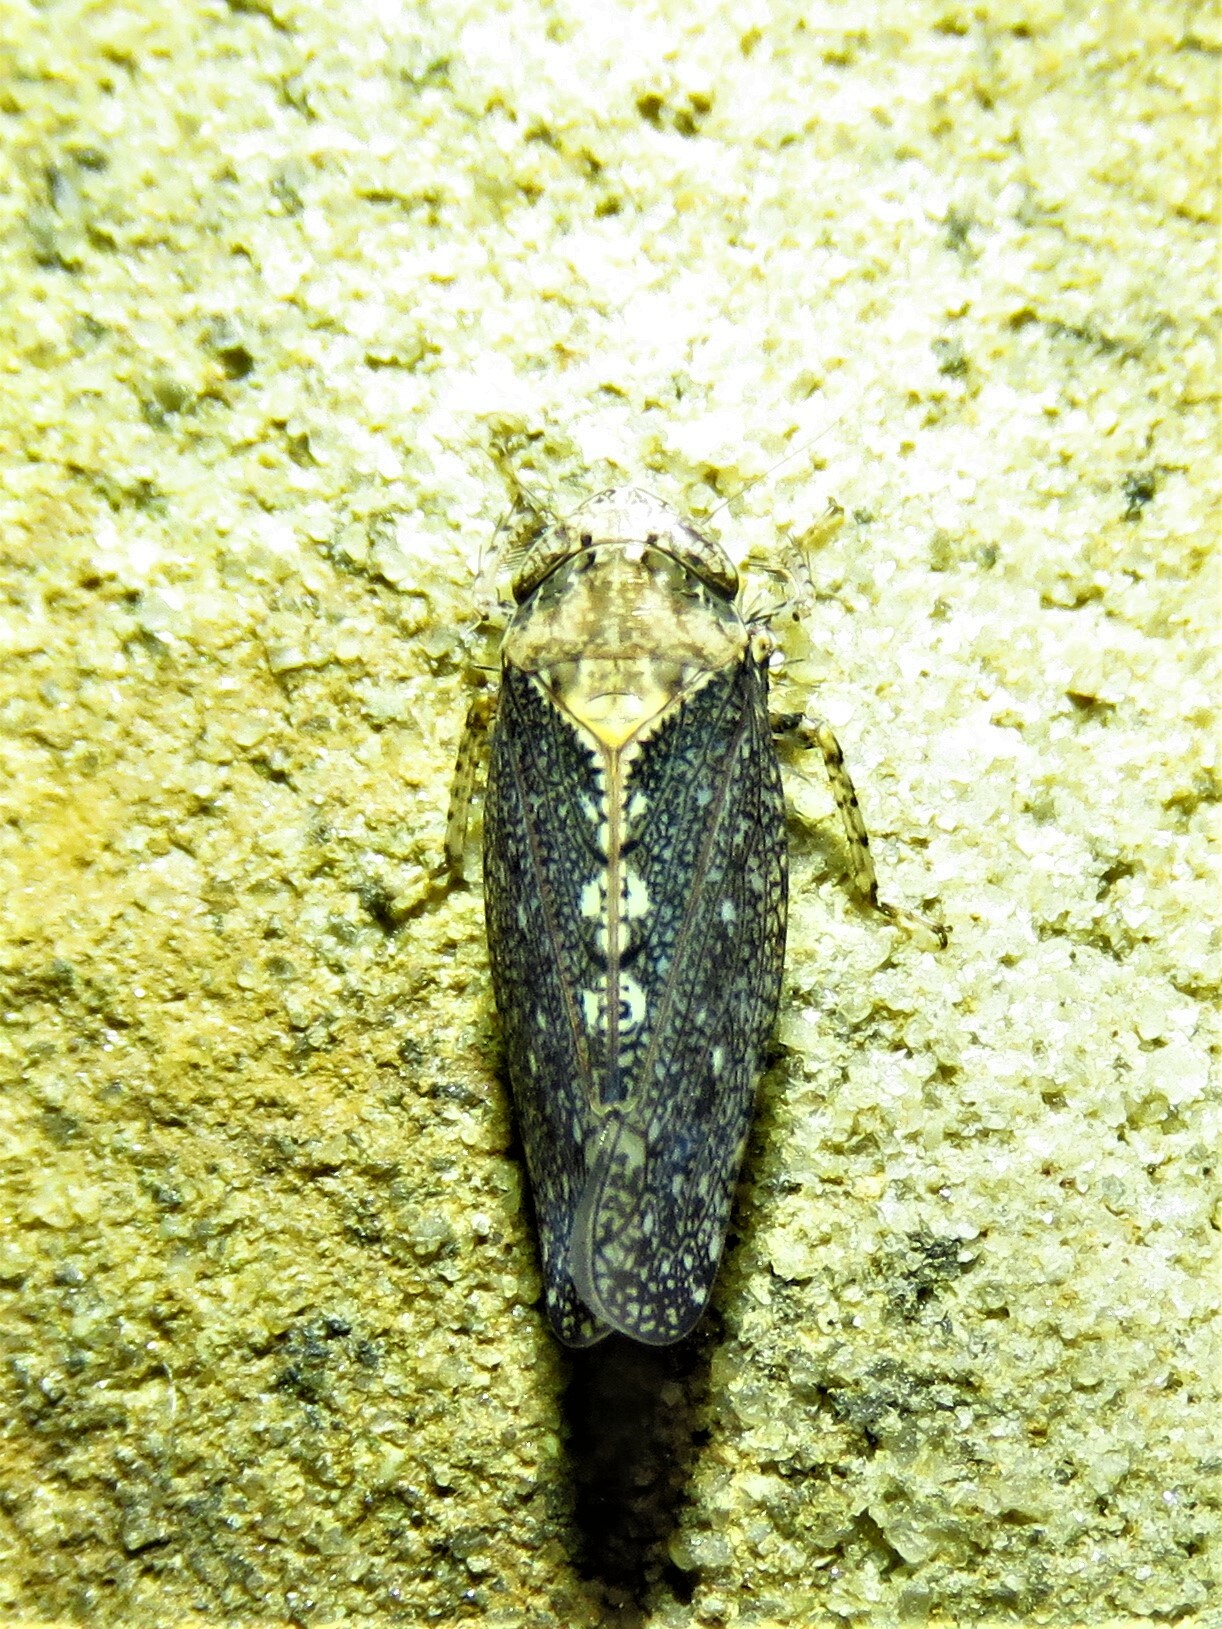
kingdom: Animalia
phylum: Arthropoda
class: Insecta
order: Hemiptera
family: Cicadellidae
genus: Excultanus
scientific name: Excultanus excultus
